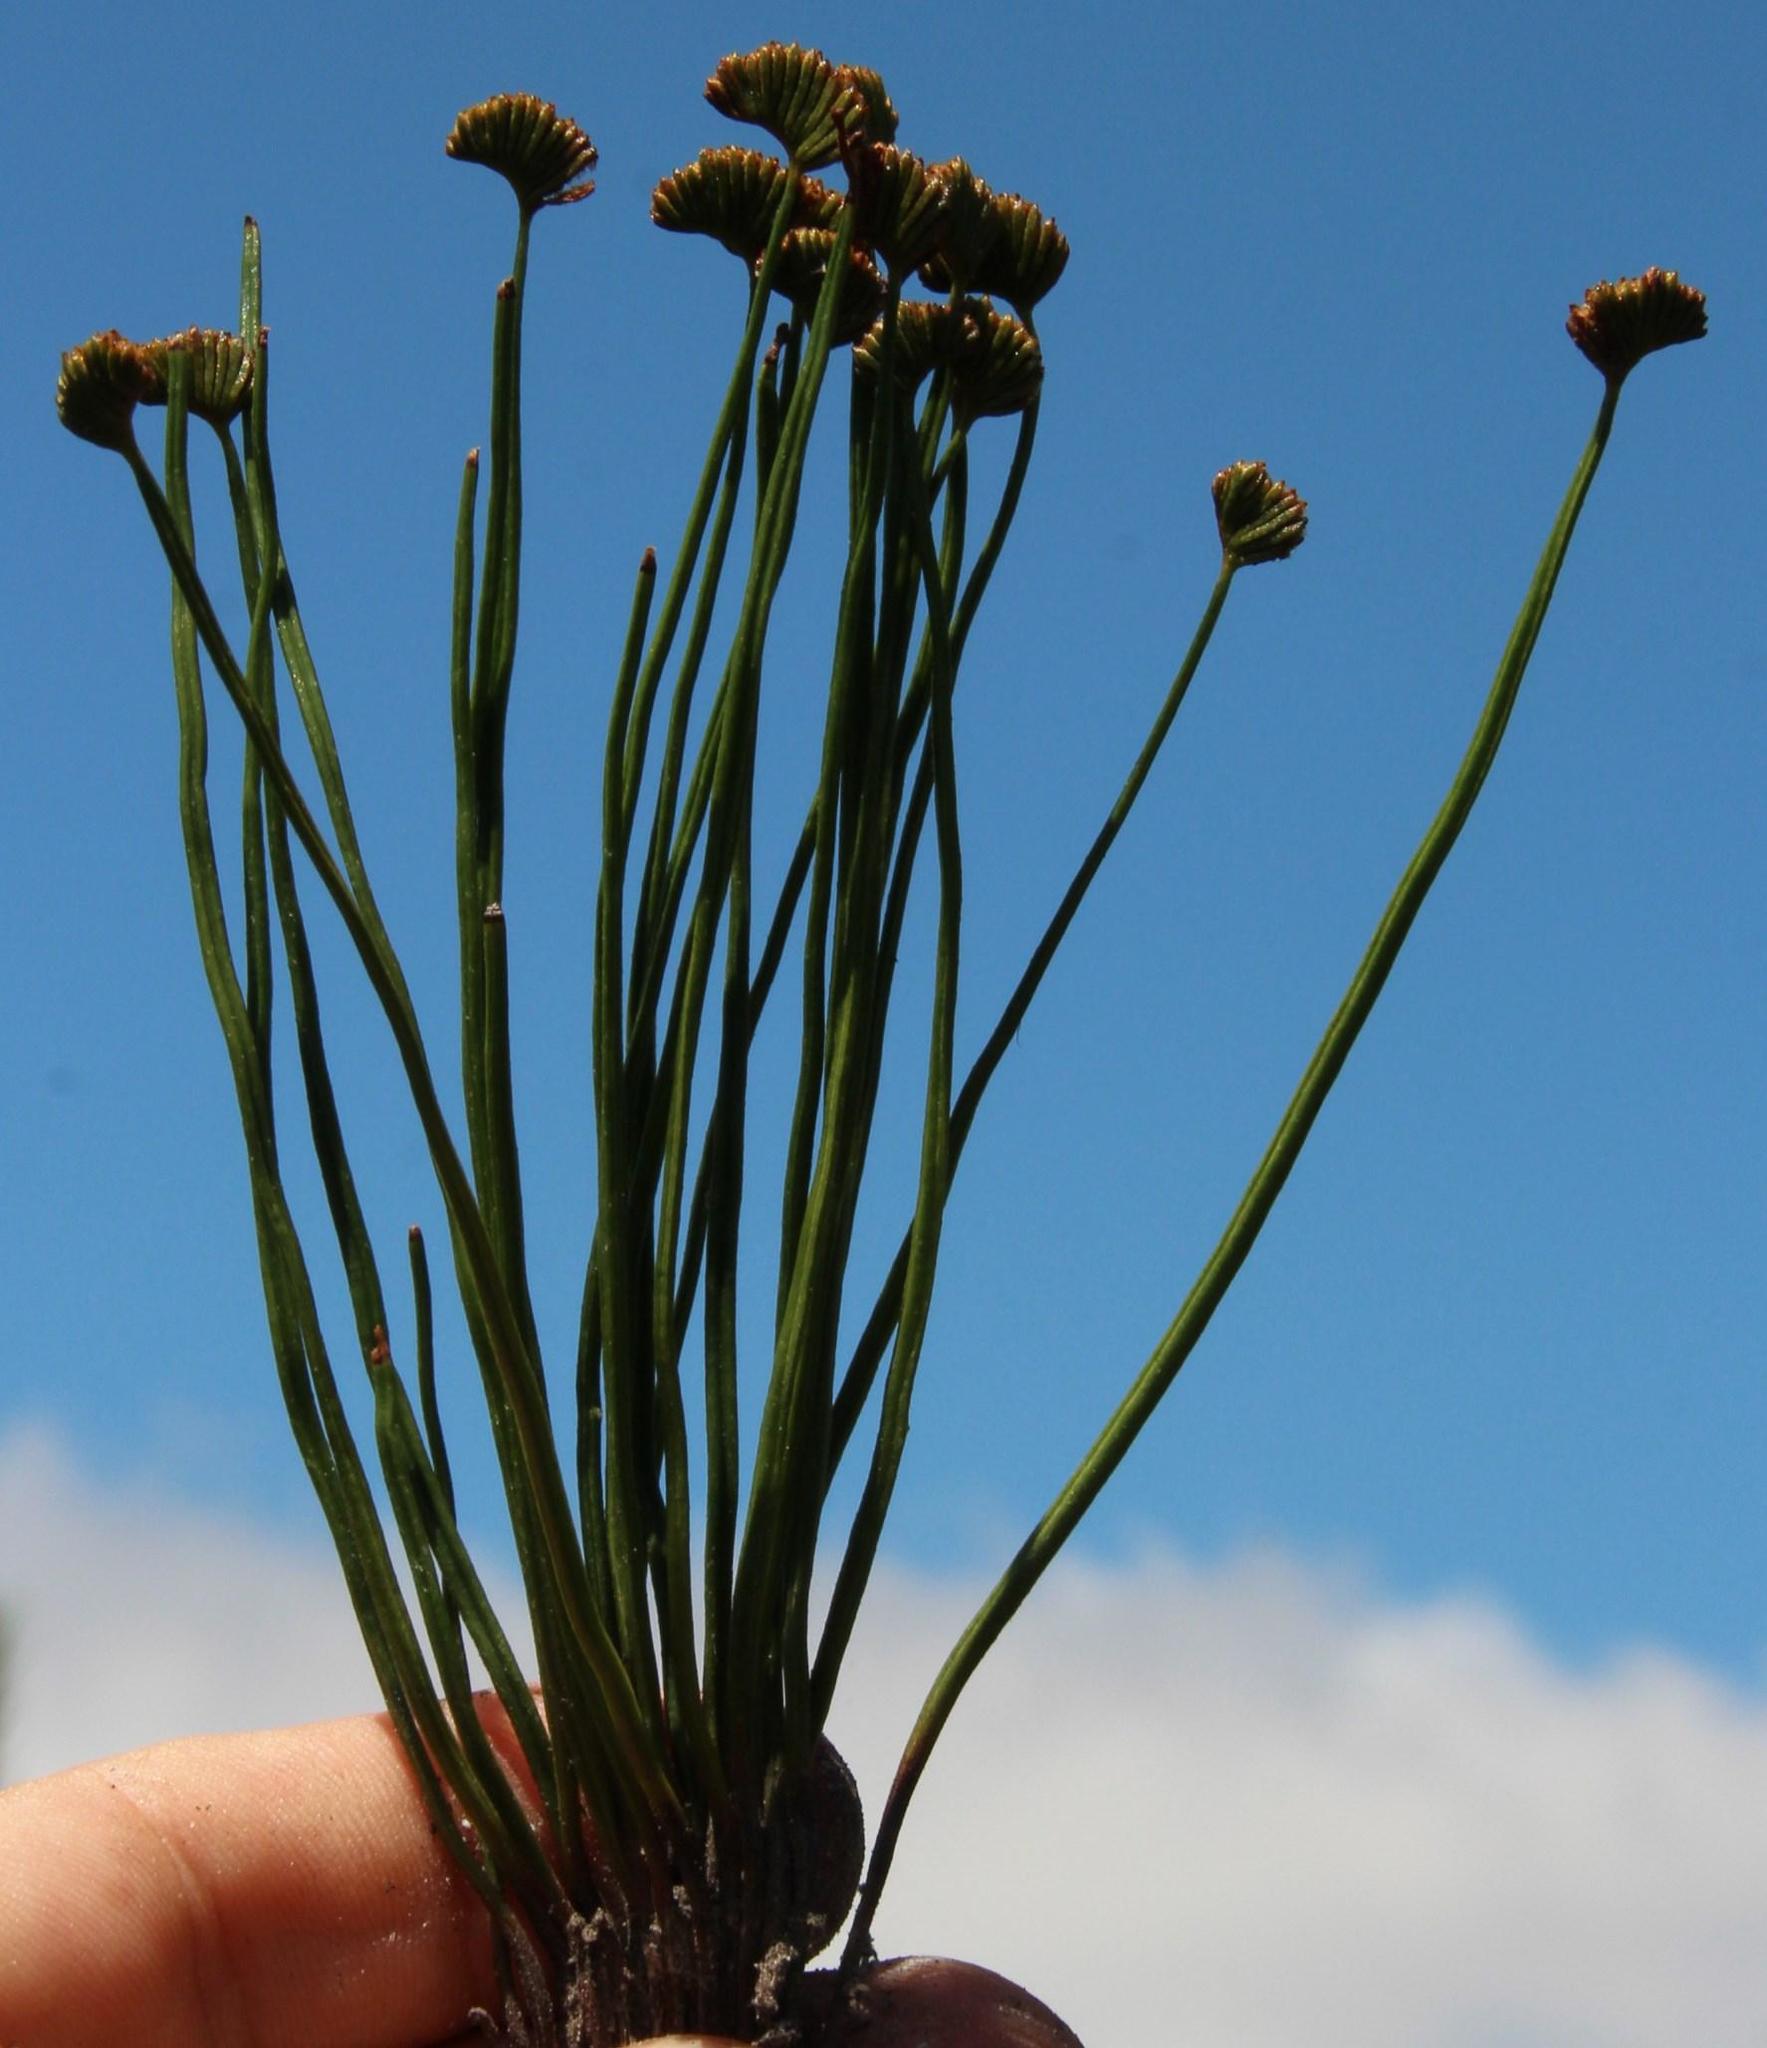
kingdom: Plantae
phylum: Tracheophyta
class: Polypodiopsida
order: Schizaeales
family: Schizaeaceae
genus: Schizaea
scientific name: Schizaea pectinata
